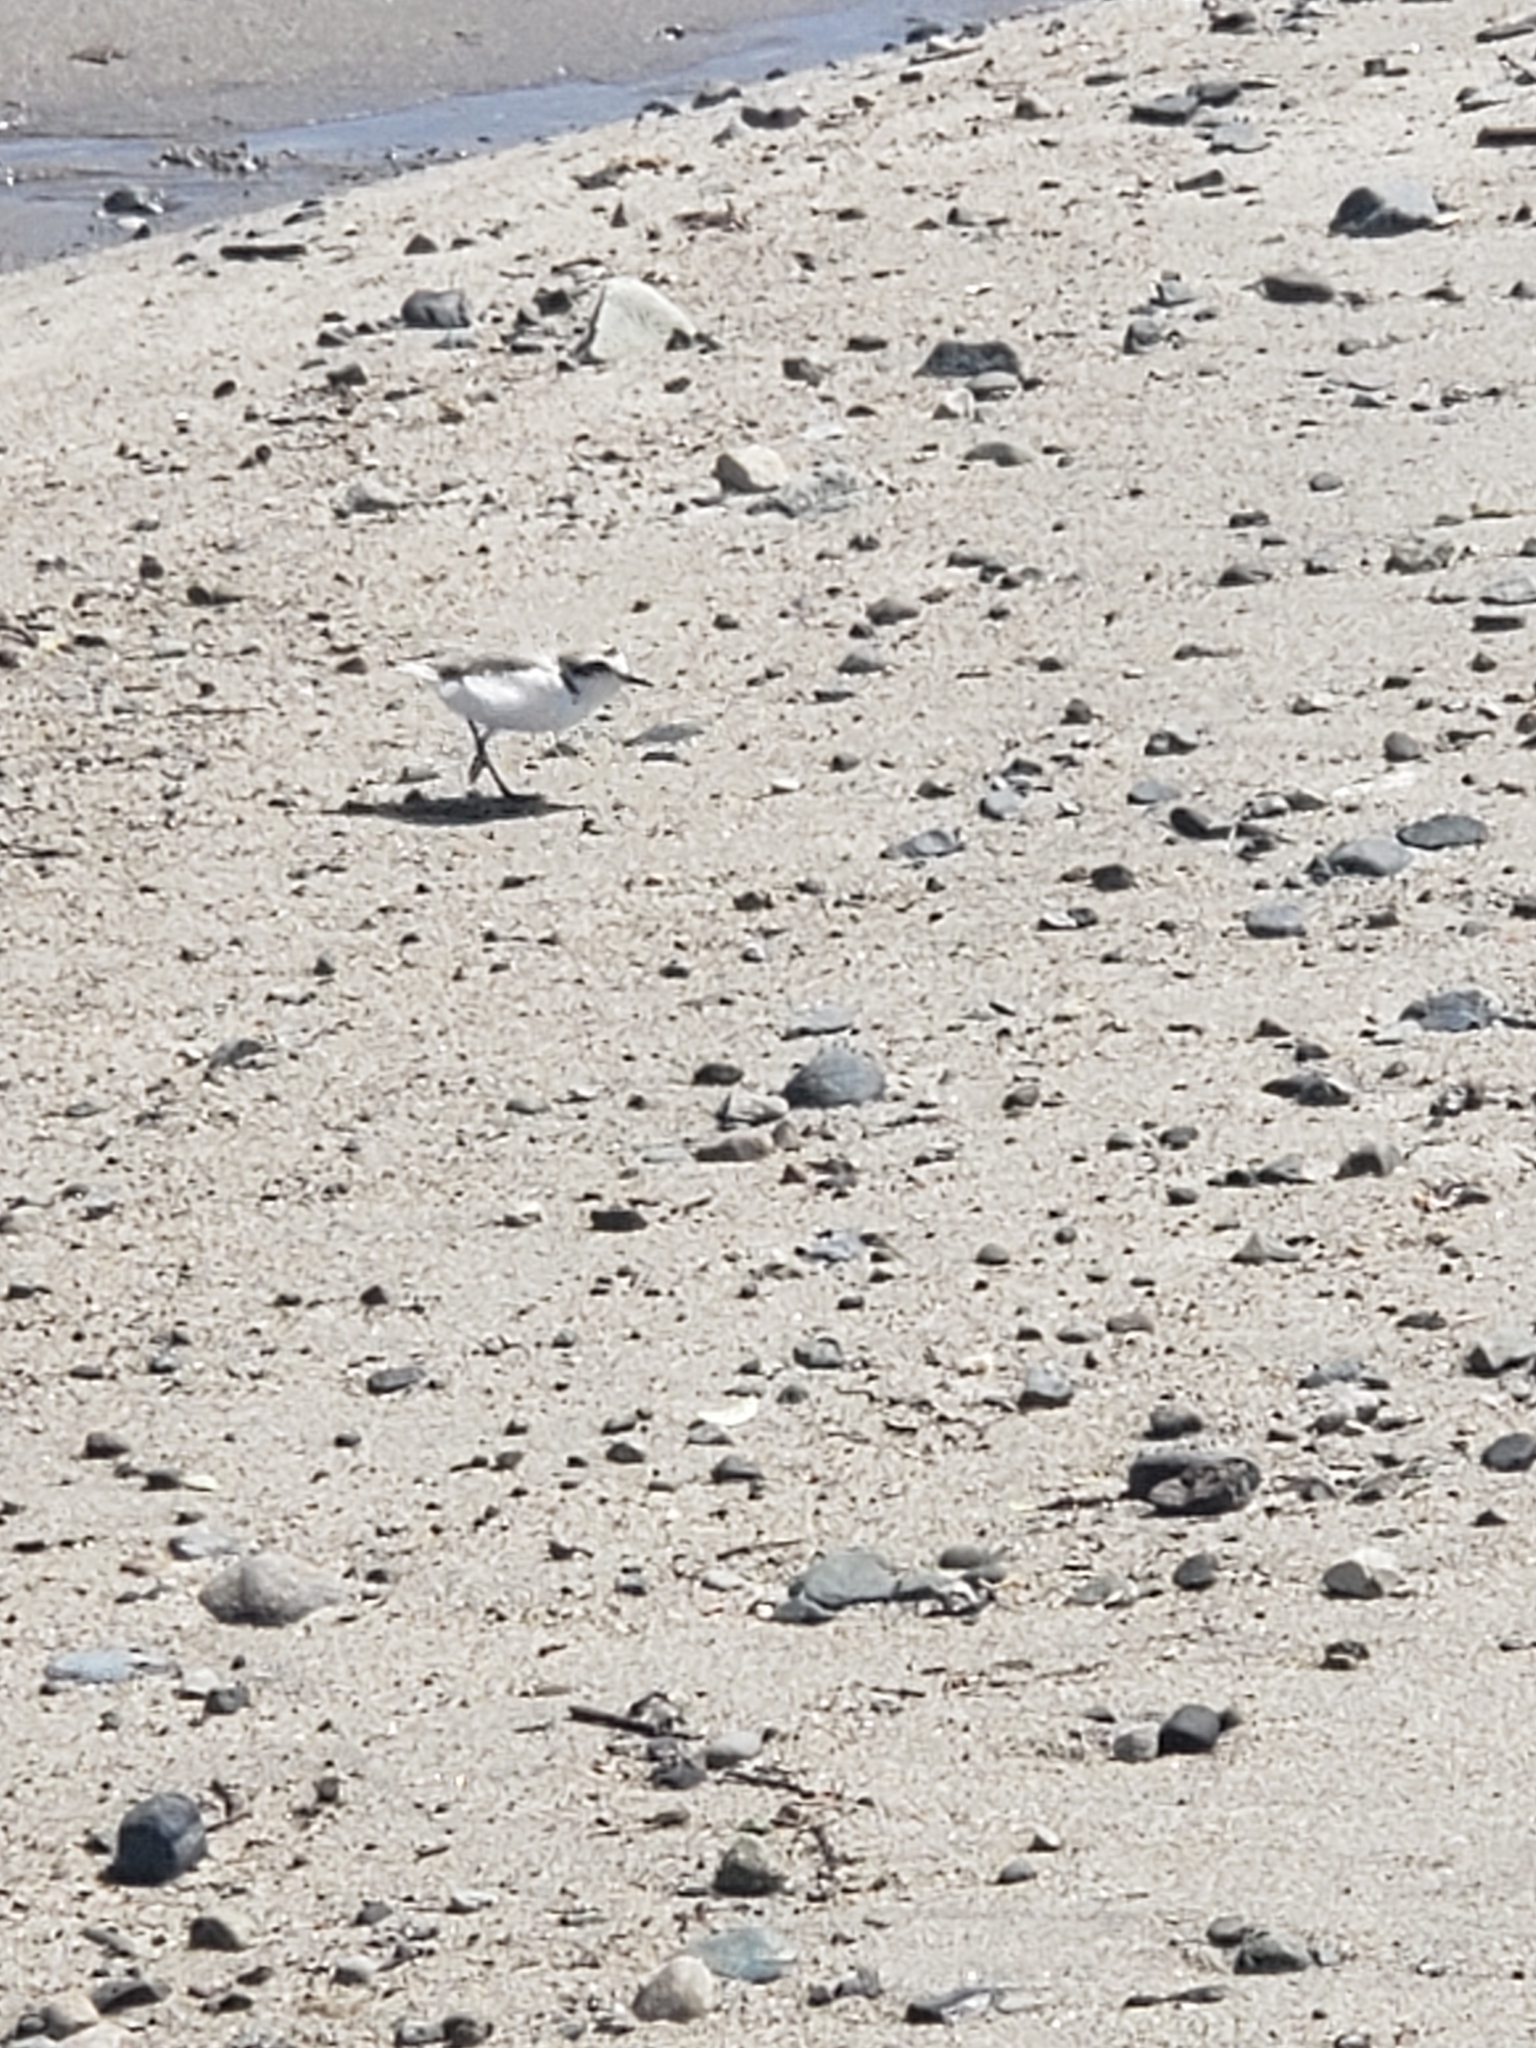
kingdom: Animalia
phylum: Chordata
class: Aves
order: Charadriiformes
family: Charadriidae
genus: Anarhynchus
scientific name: Anarhynchus
